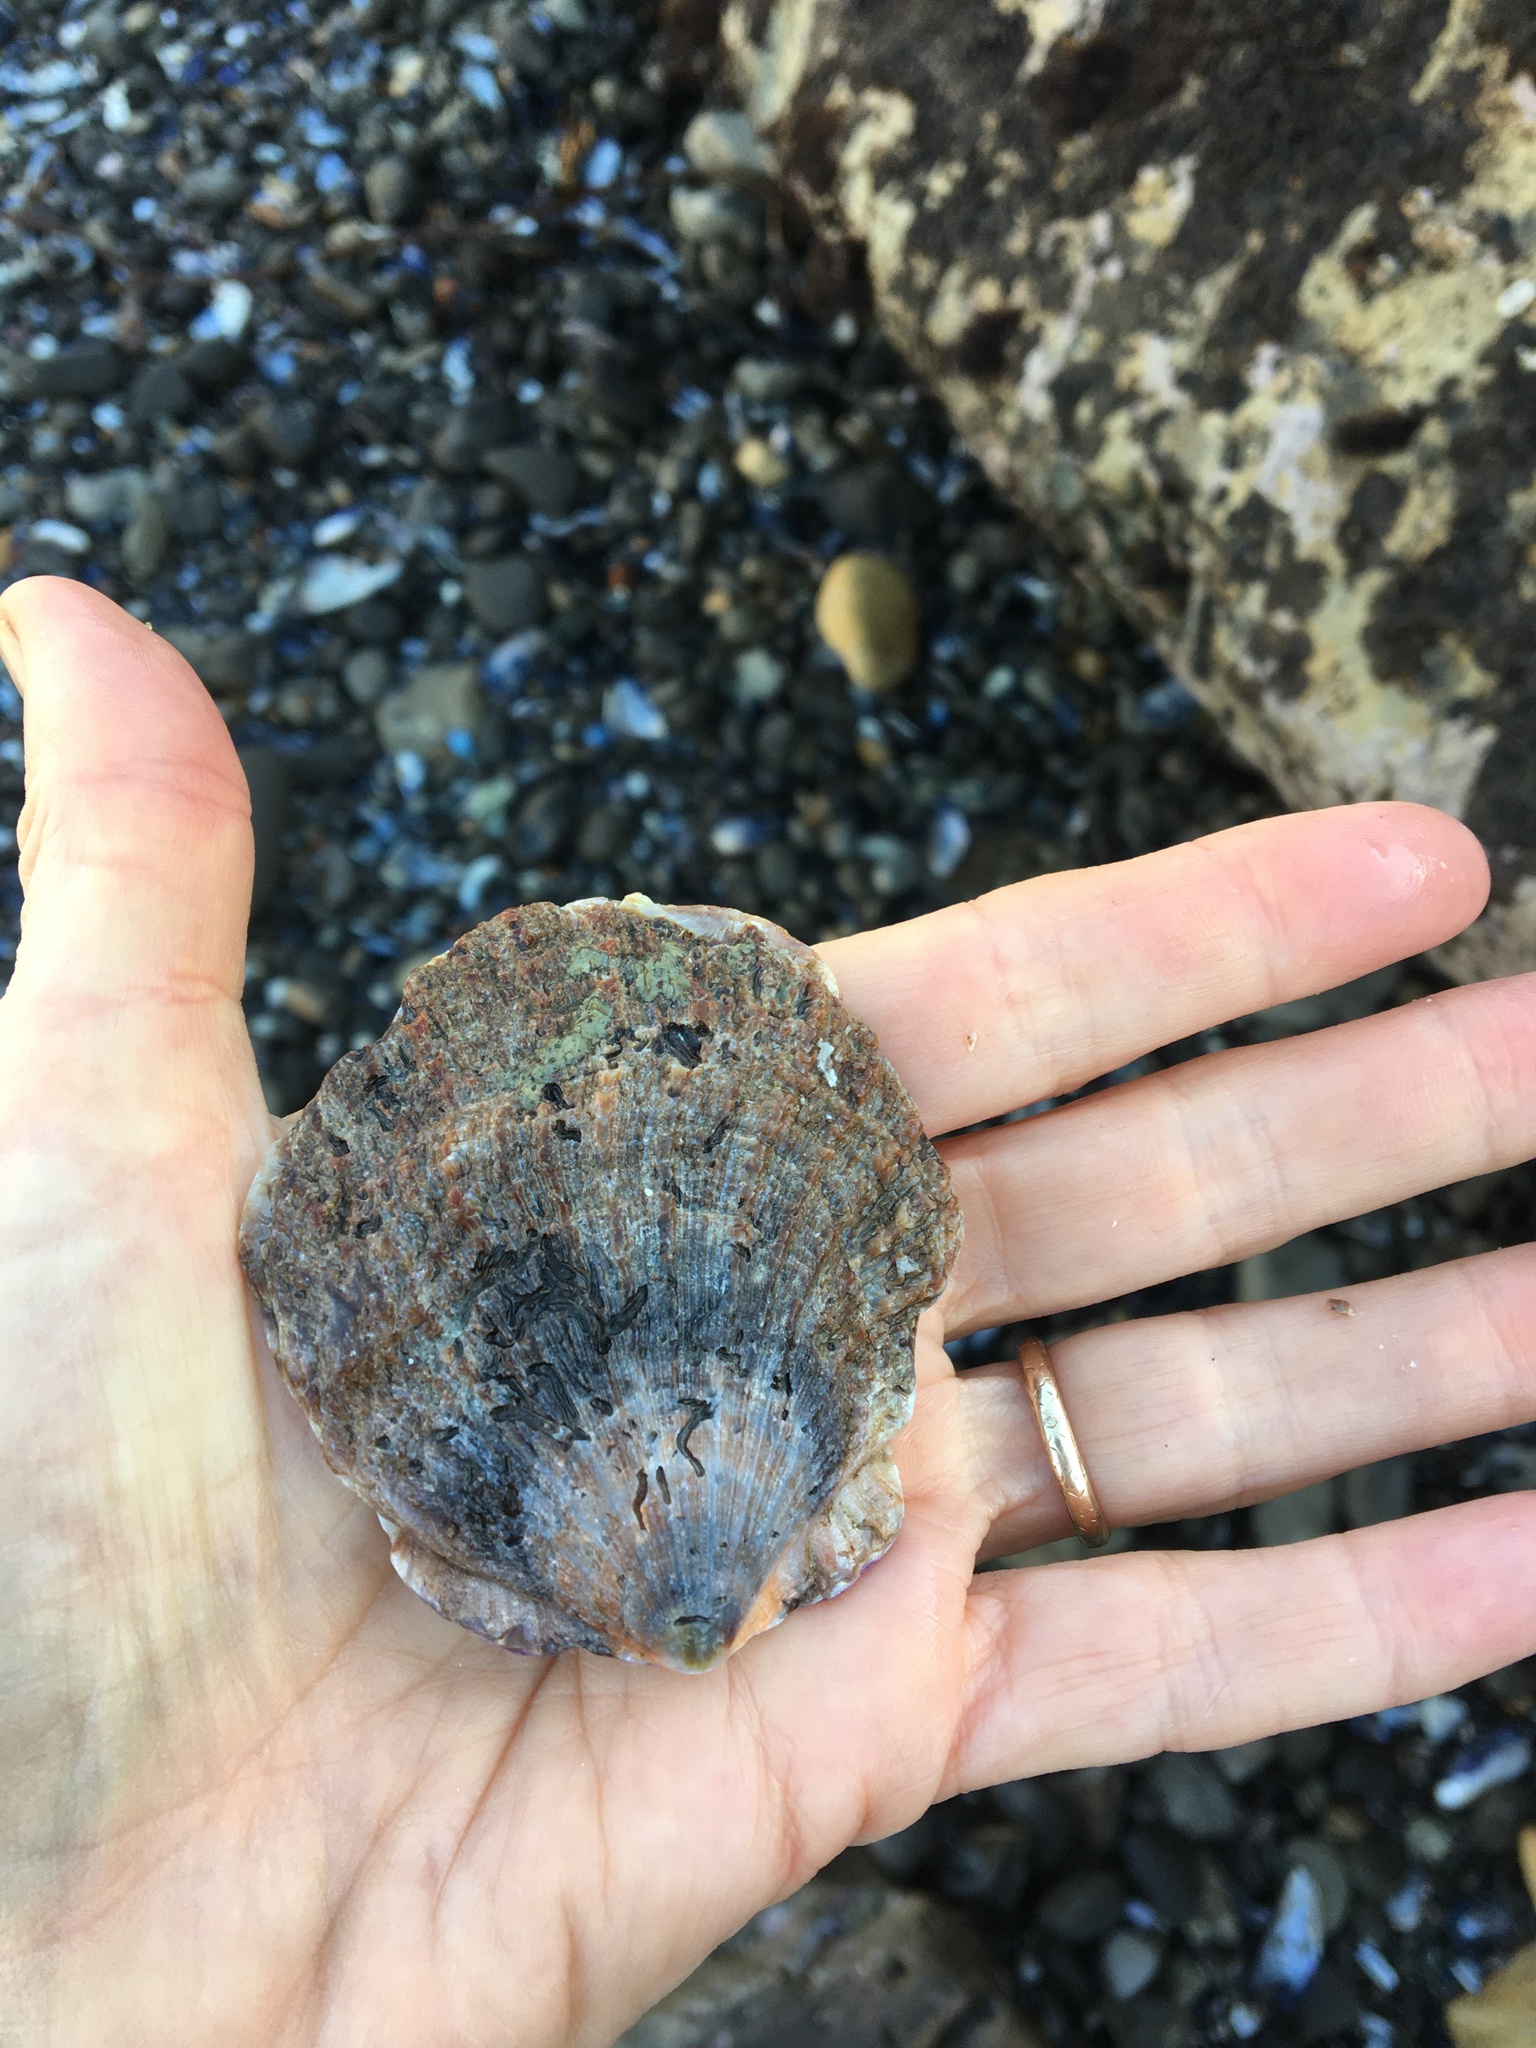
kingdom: Animalia
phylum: Mollusca
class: Bivalvia
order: Pectinida
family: Pectinidae
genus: Crassadoma
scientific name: Crassadoma gigantea
